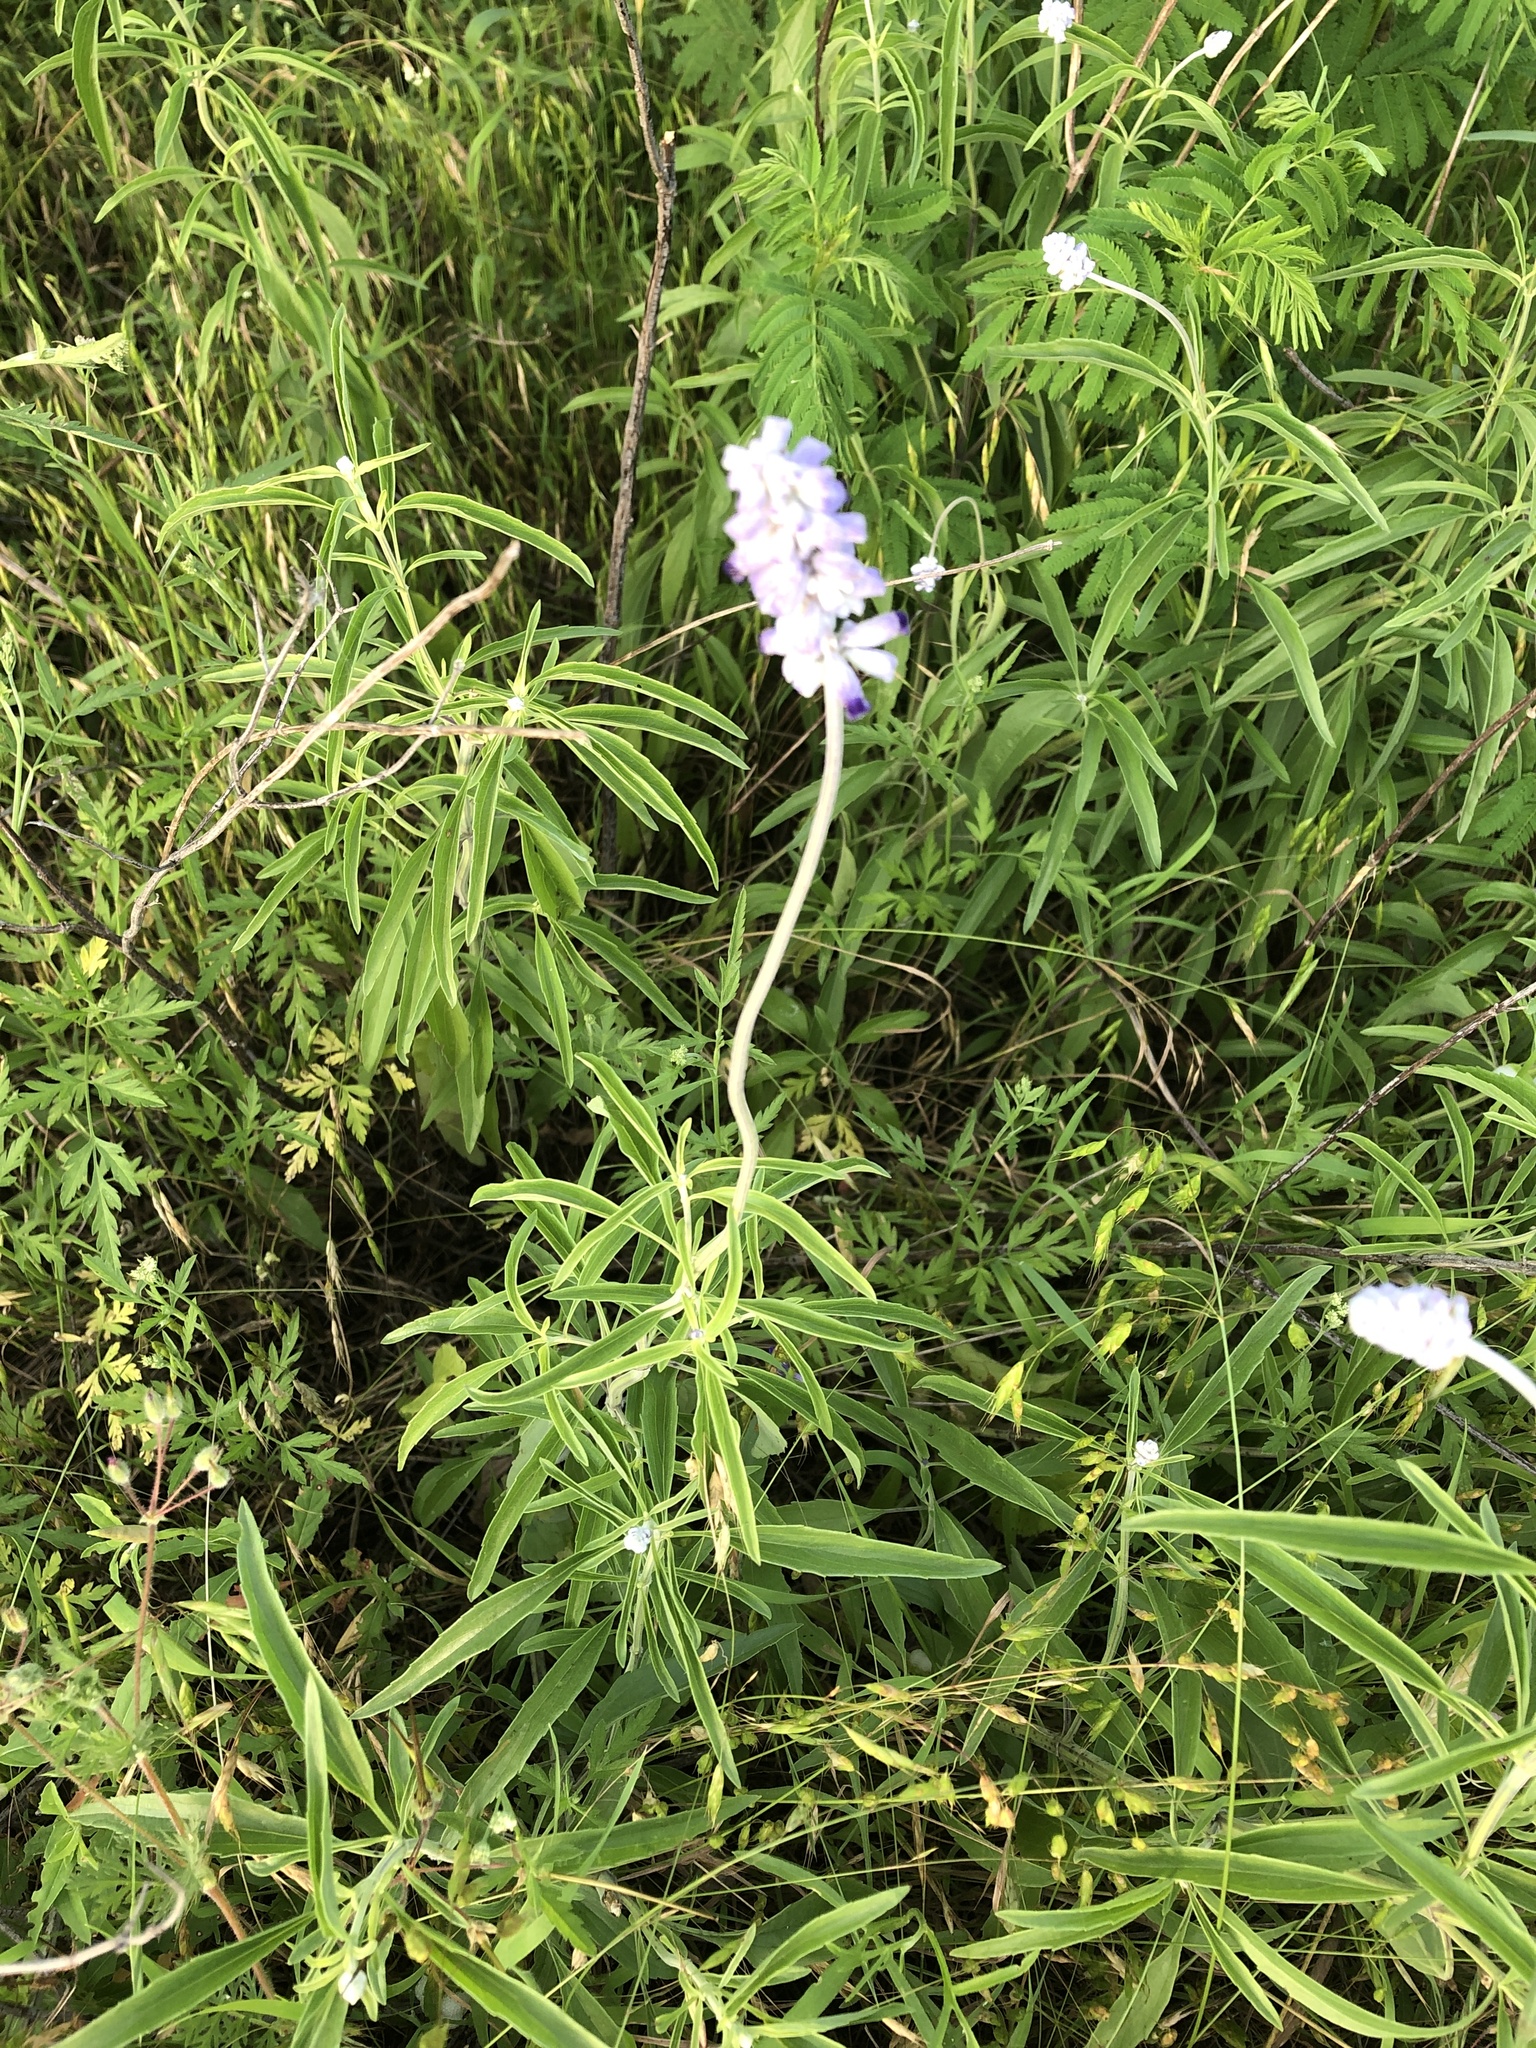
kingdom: Plantae
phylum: Tracheophyta
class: Magnoliopsida
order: Lamiales
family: Lamiaceae
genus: Salvia
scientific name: Salvia farinacea
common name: Mealy sage
